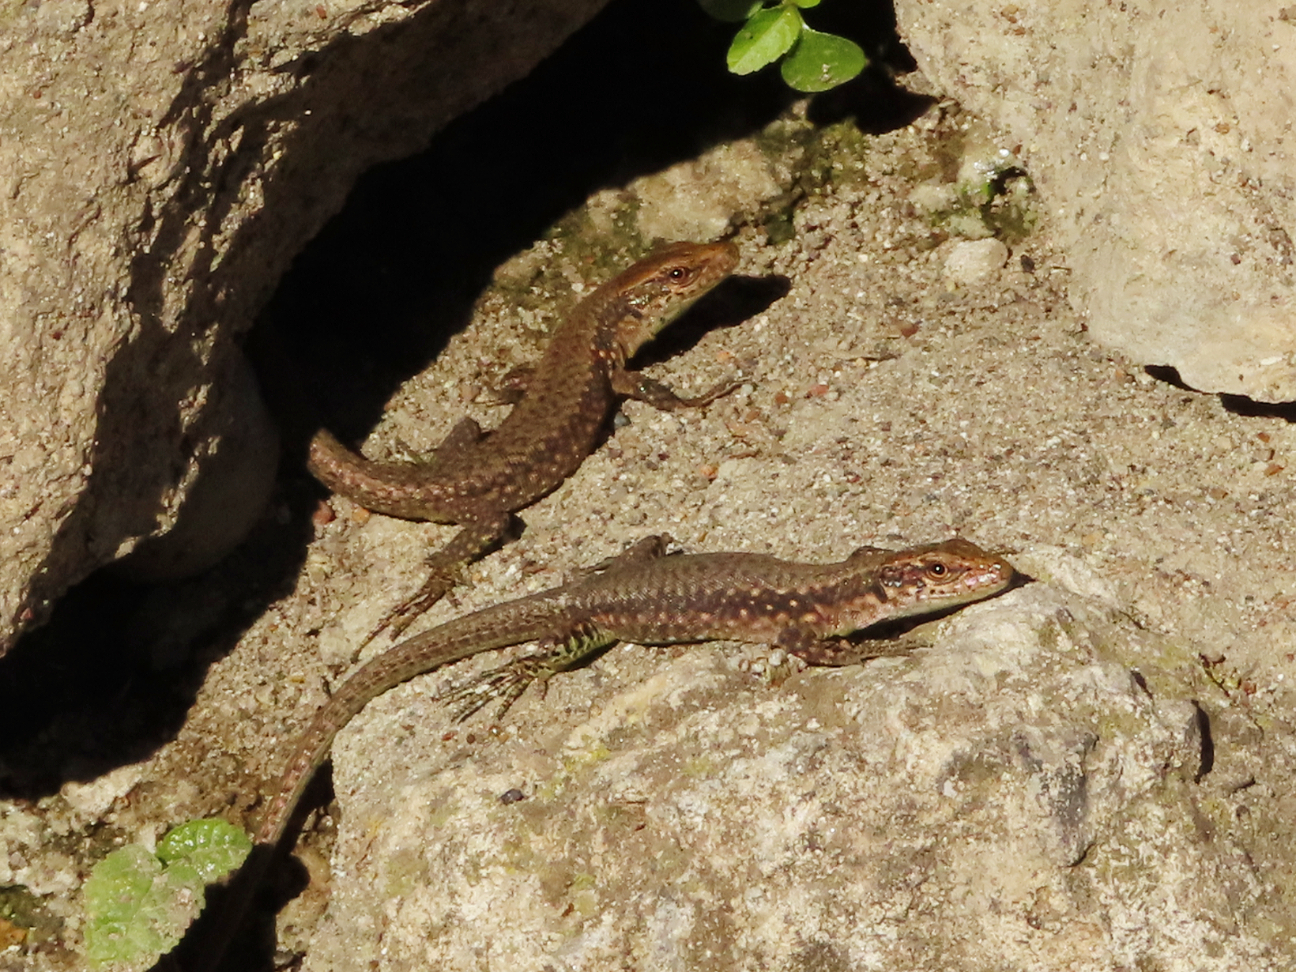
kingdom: Animalia
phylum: Chordata
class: Squamata
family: Lacertidae
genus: Darevskia
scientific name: Darevskia mixta
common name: Ajarian lizard
